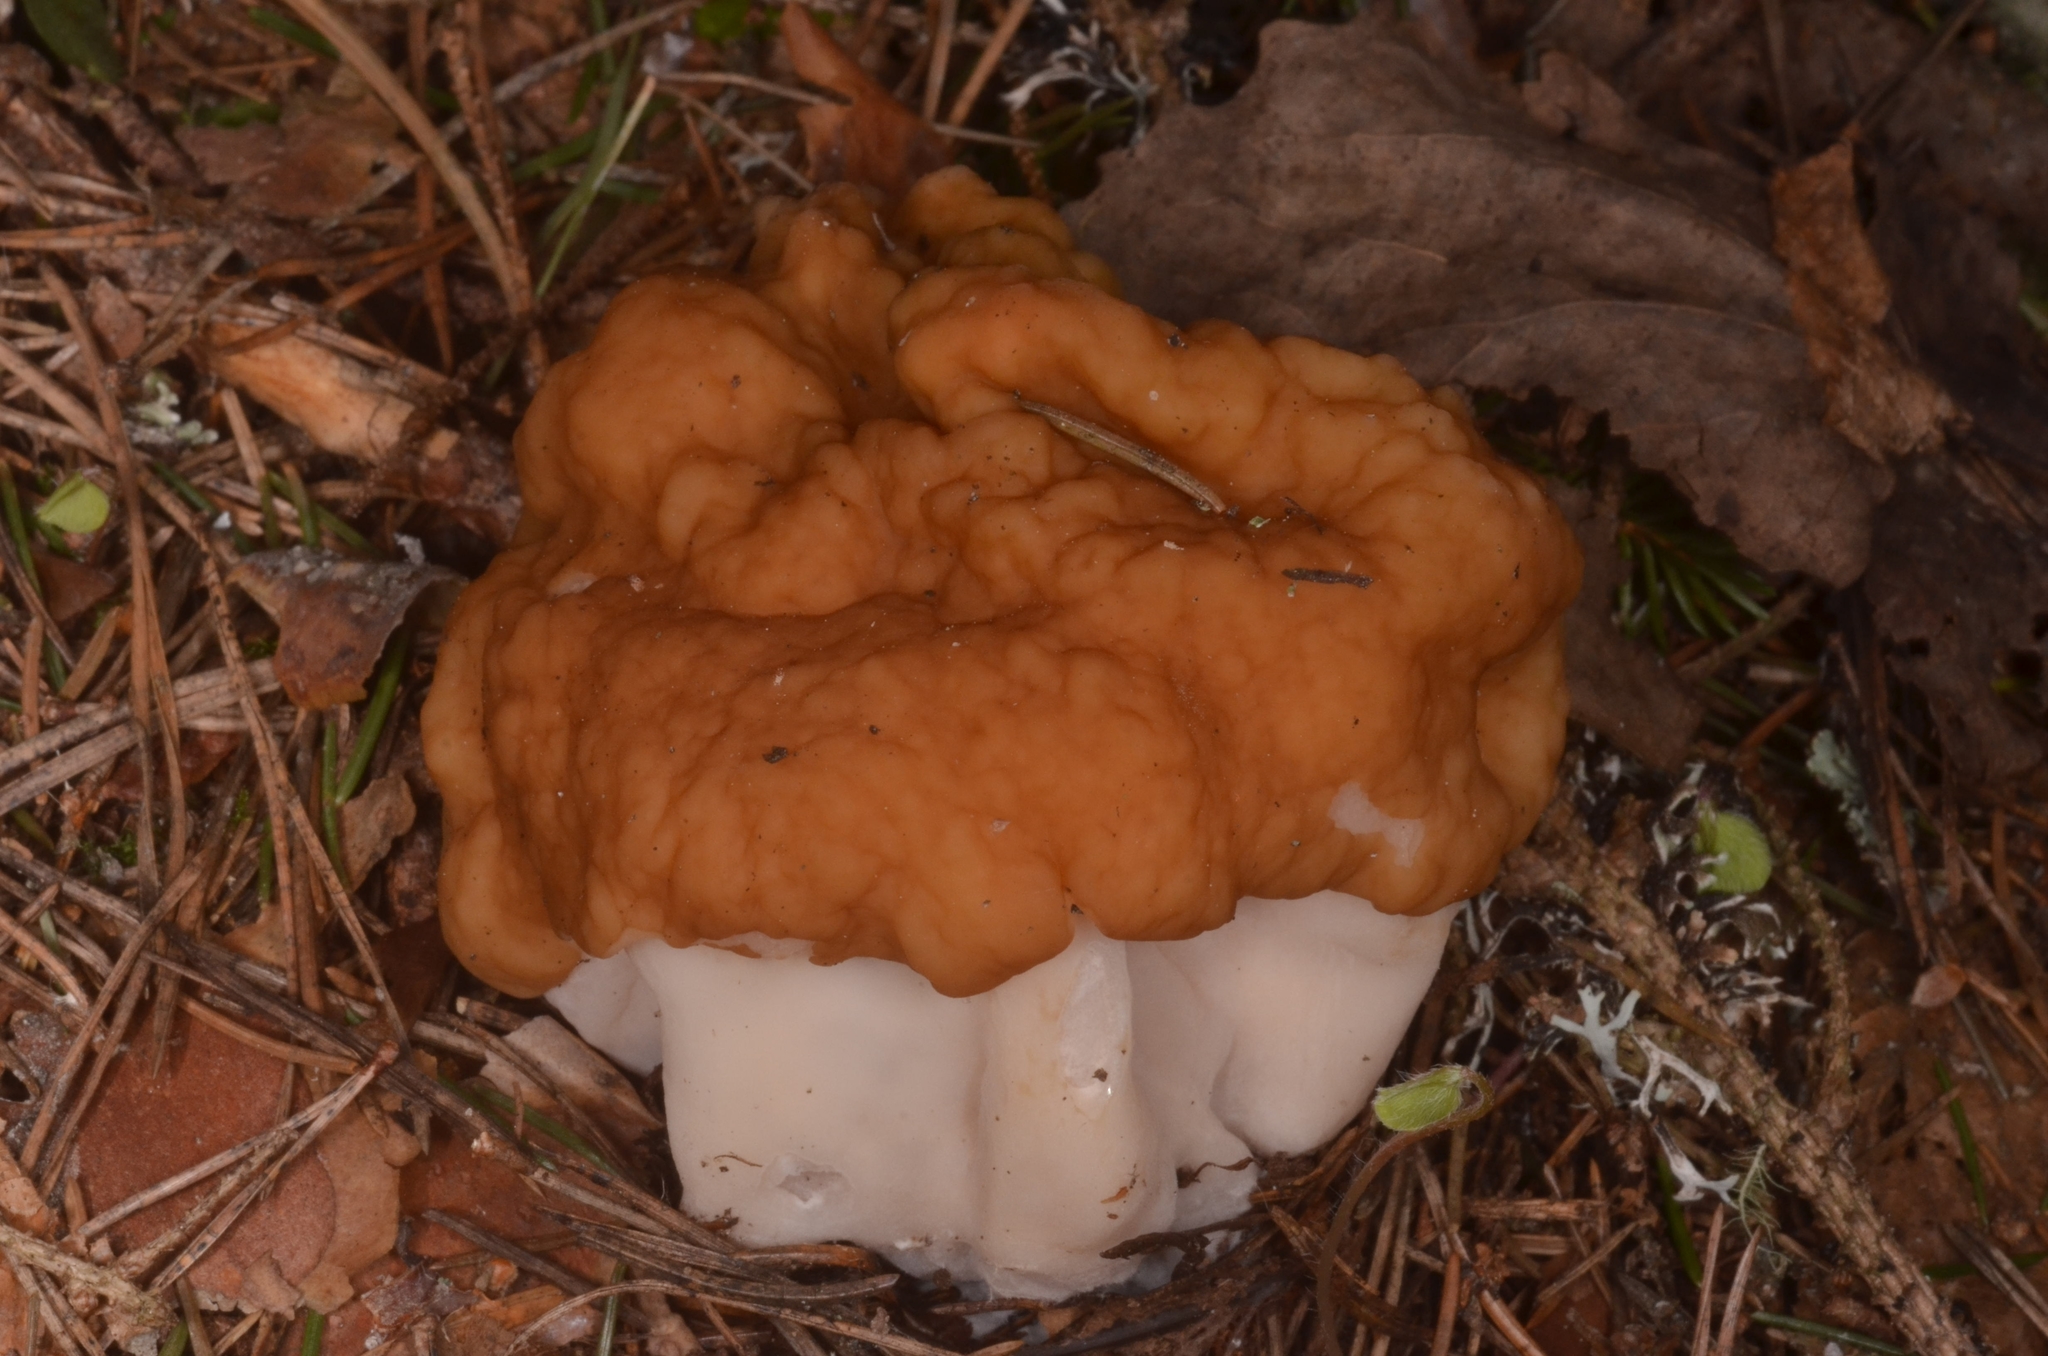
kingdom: Fungi
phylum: Ascomycota
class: Pezizomycetes
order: Pezizales
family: Discinaceae
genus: Gyromitra
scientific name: Gyromitra gigas
